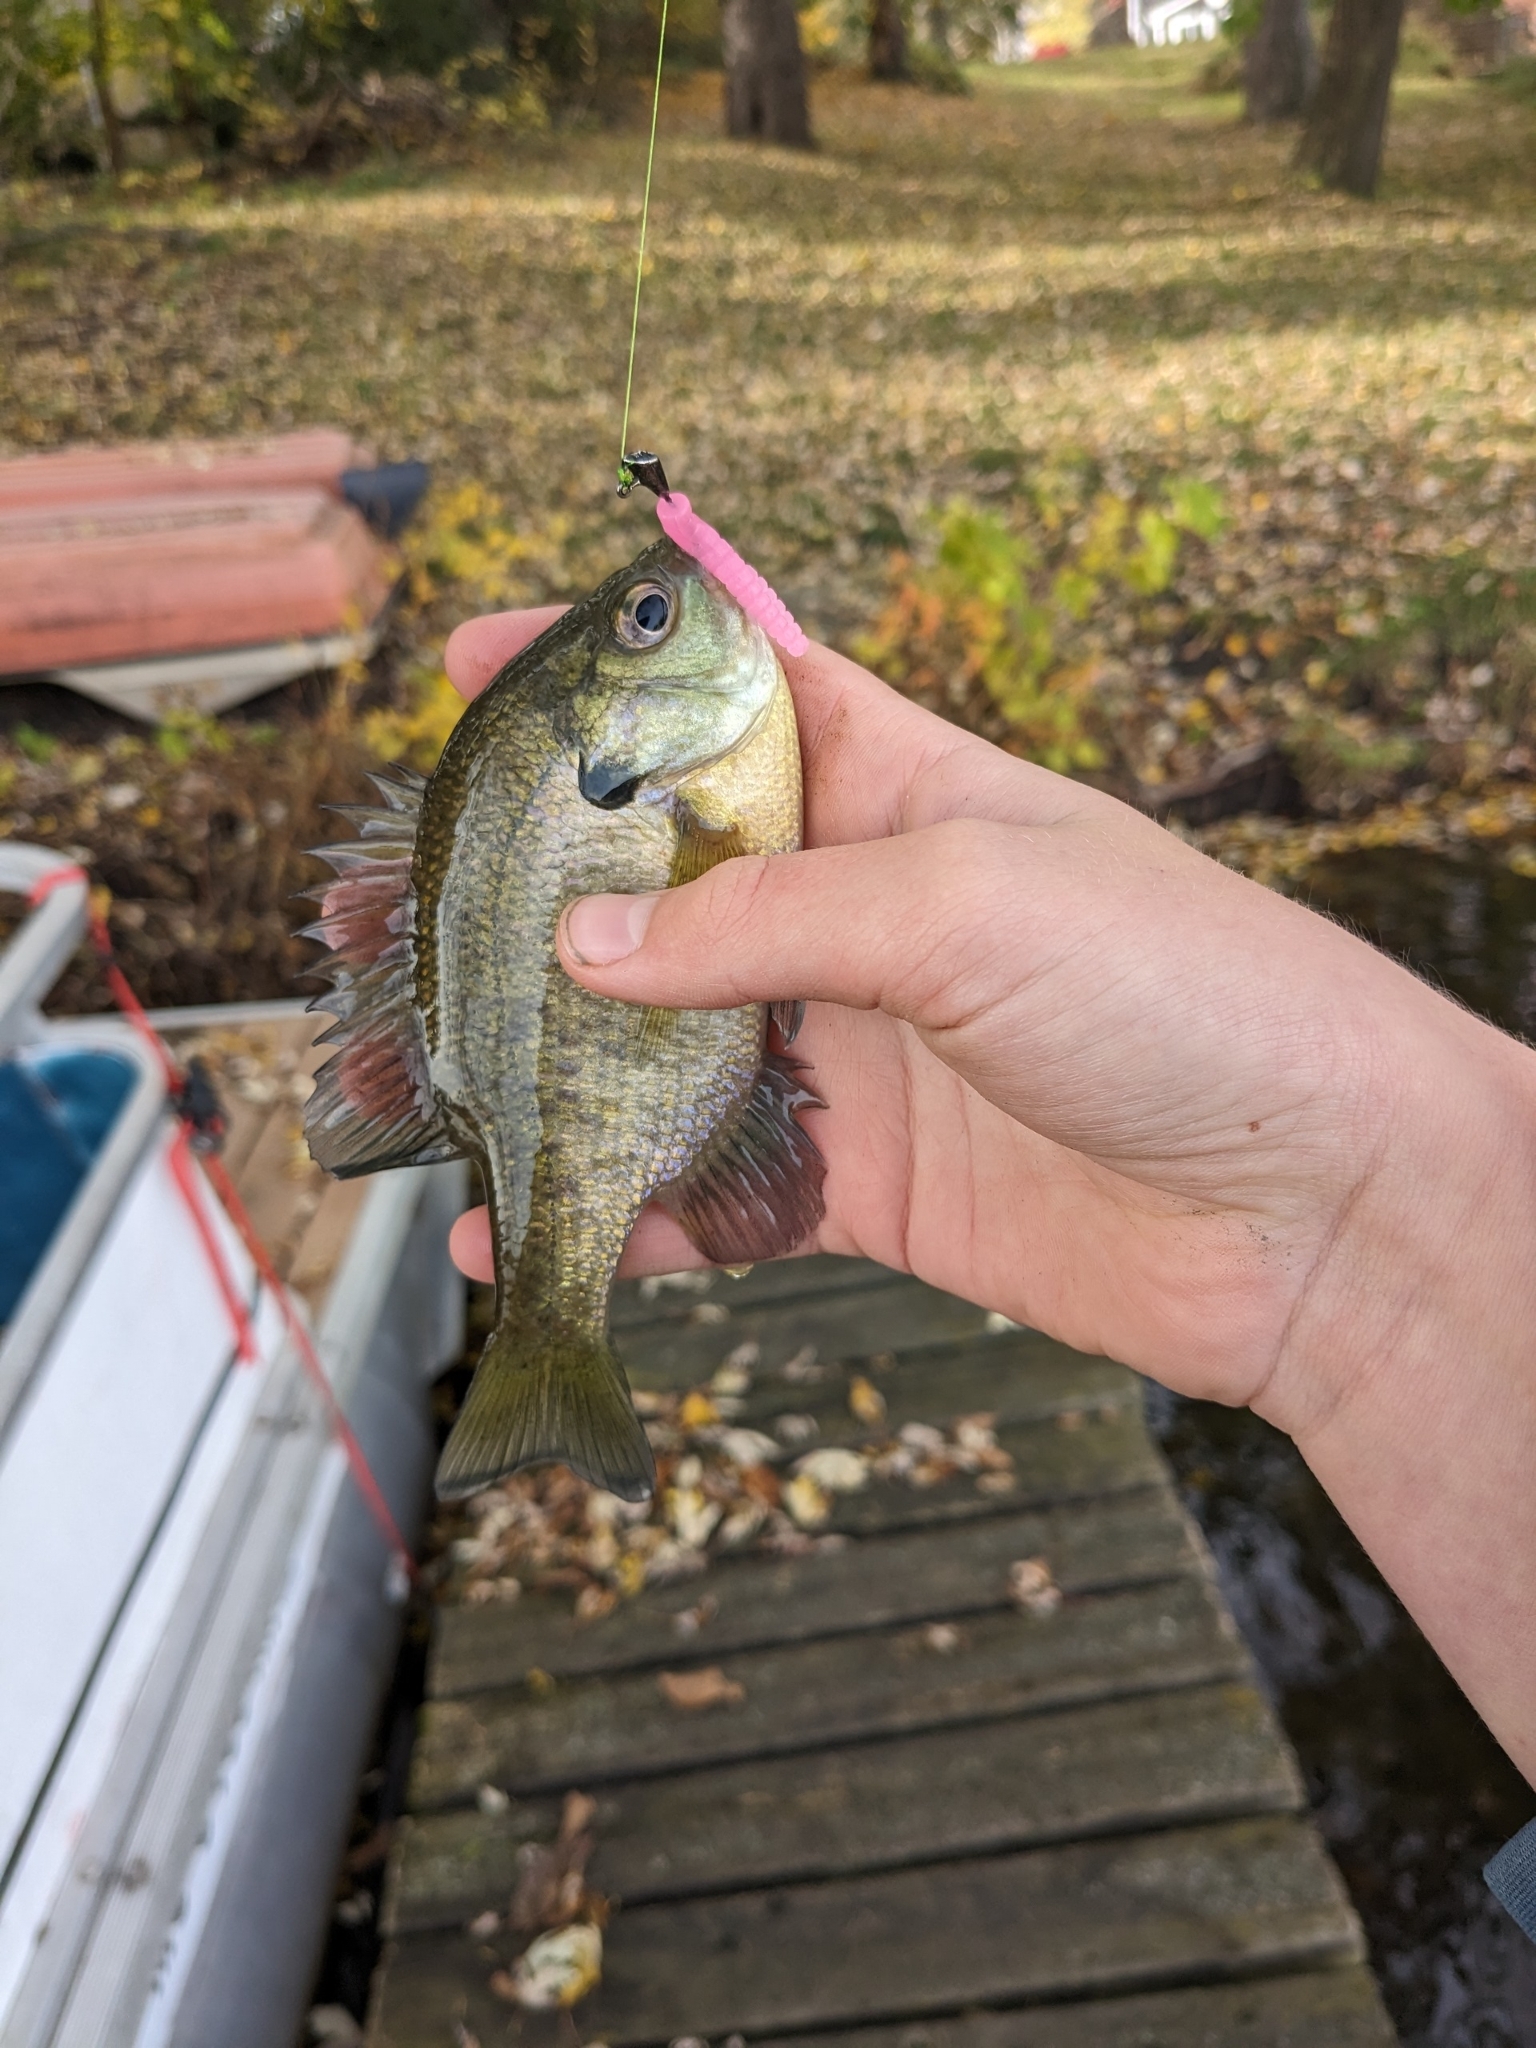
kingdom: Animalia
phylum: Chordata
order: Perciformes
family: Centrarchidae
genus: Lepomis
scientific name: Lepomis macrochirus
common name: Bluegill
